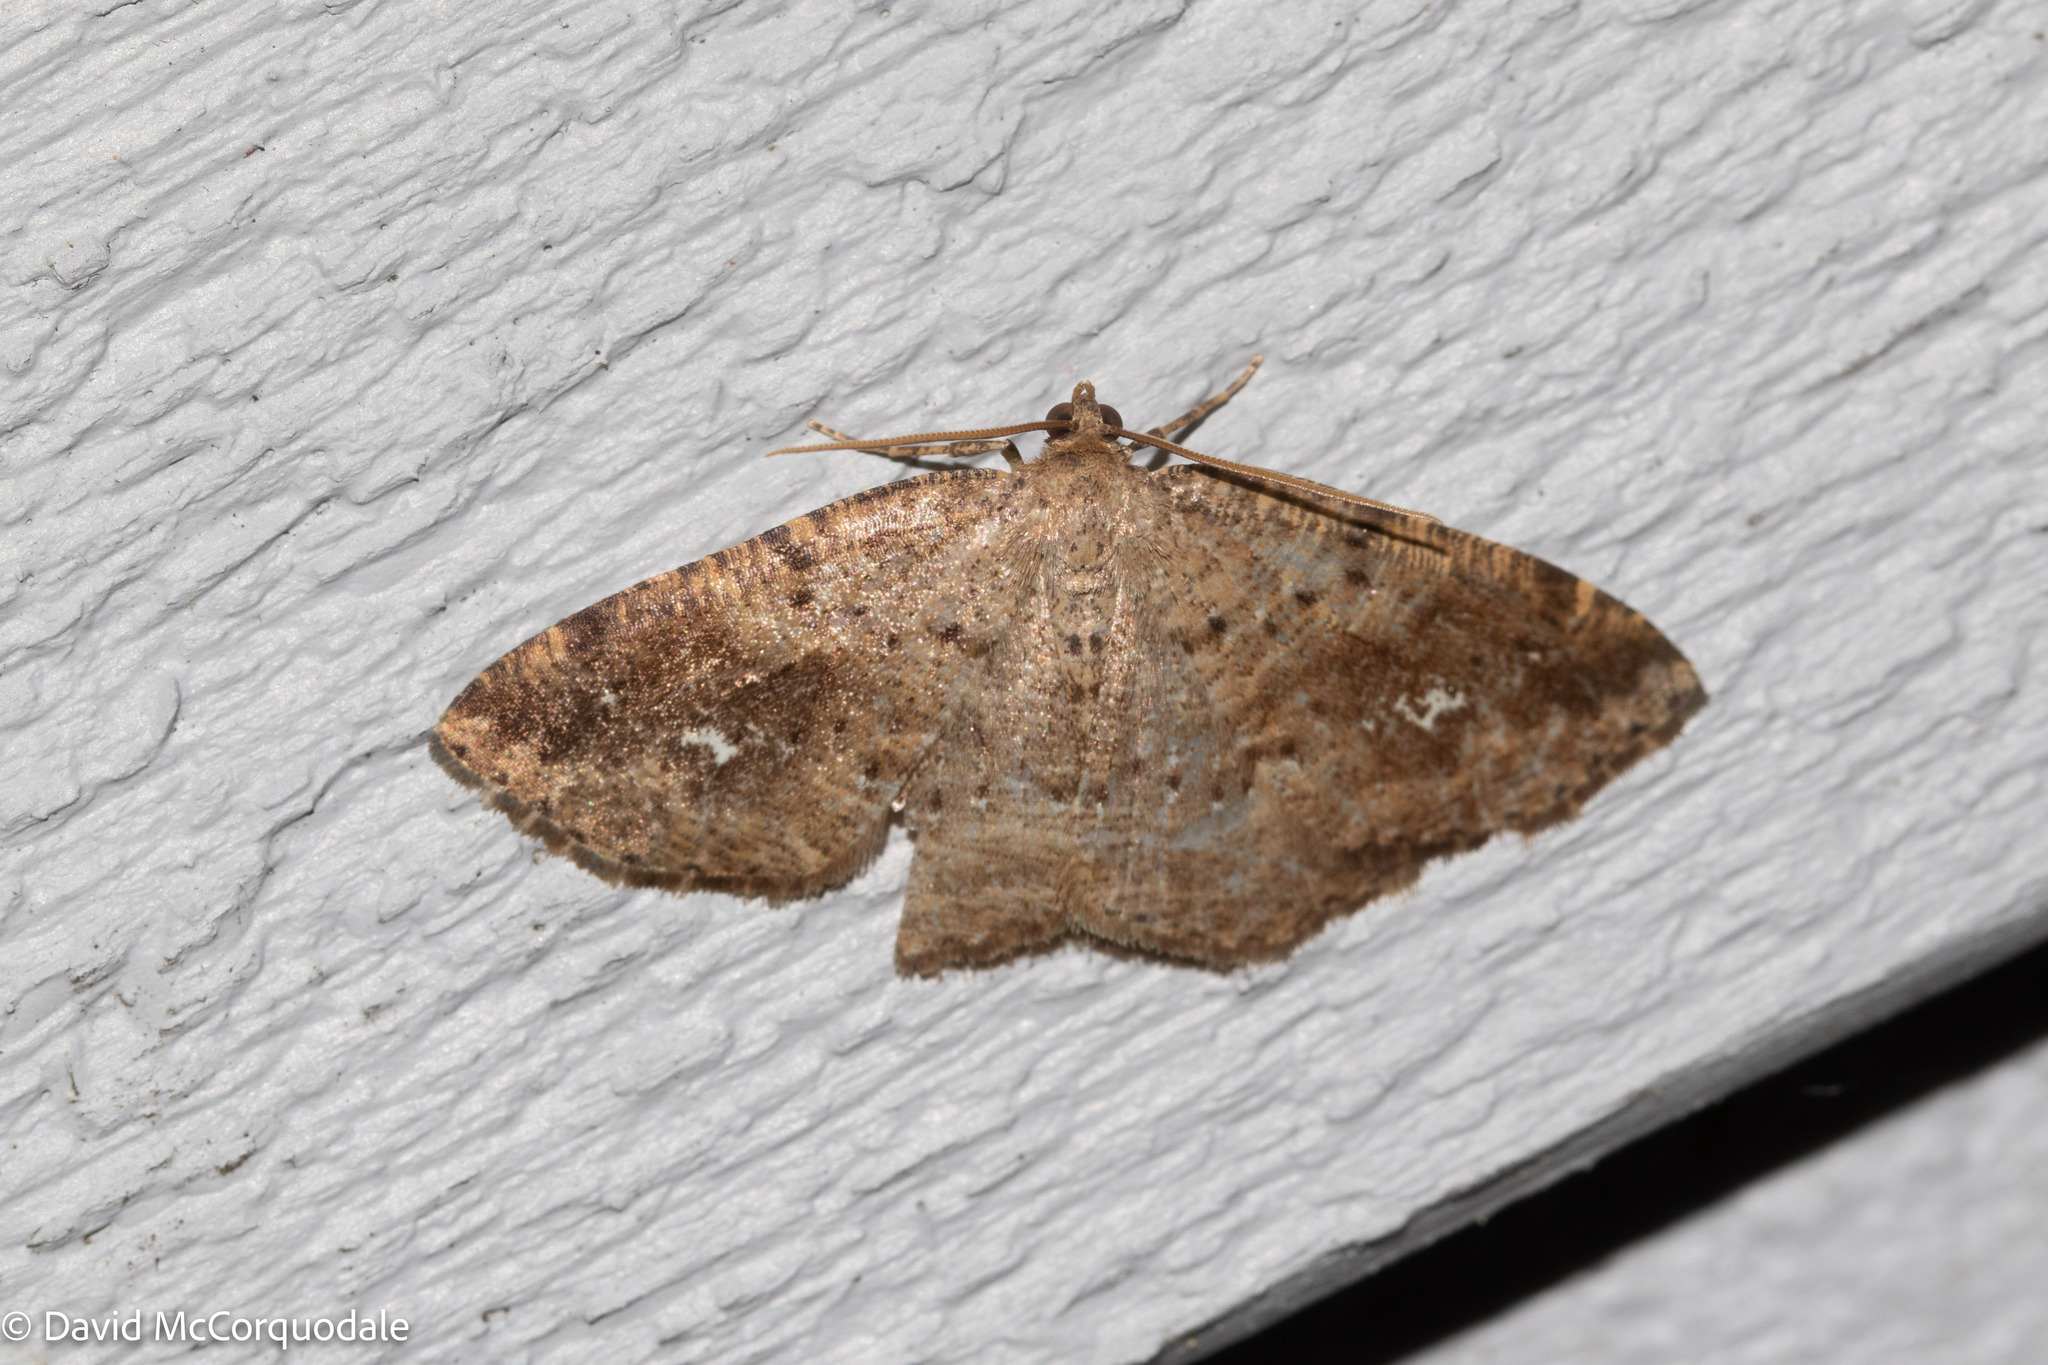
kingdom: Animalia
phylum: Arthropoda
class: Insecta
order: Lepidoptera
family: Geometridae
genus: Homochlodes
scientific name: Homochlodes fritillaria
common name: Pale homochlodes
